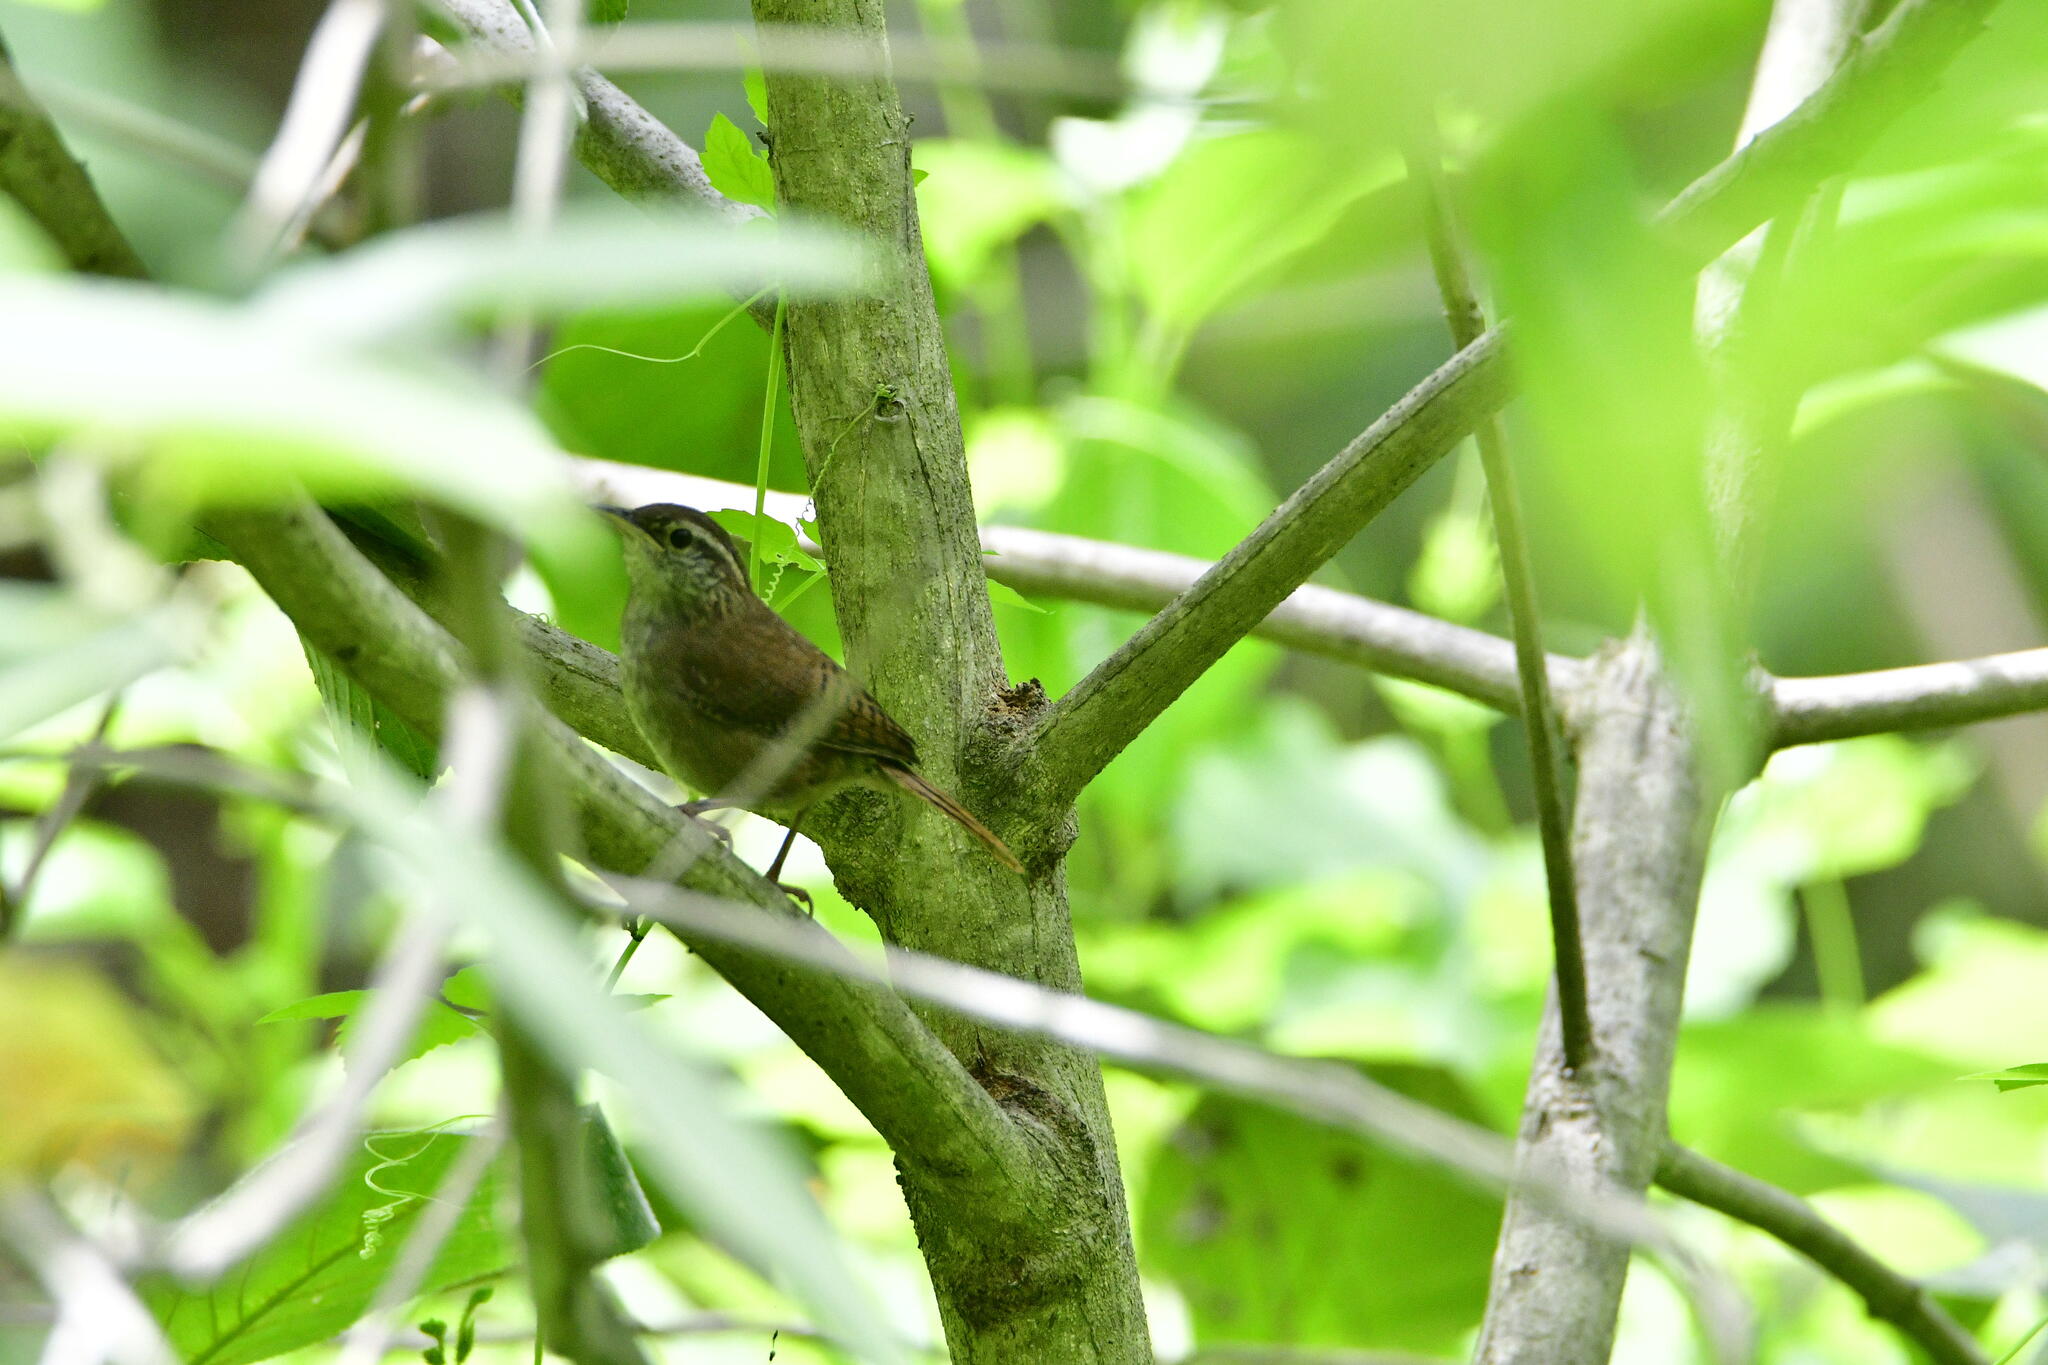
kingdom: Animalia
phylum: Chordata
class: Aves
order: Passeriformes
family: Troglodytidae
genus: Thryophilus
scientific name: Thryophilus sinaloa
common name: Sinaloa wren
